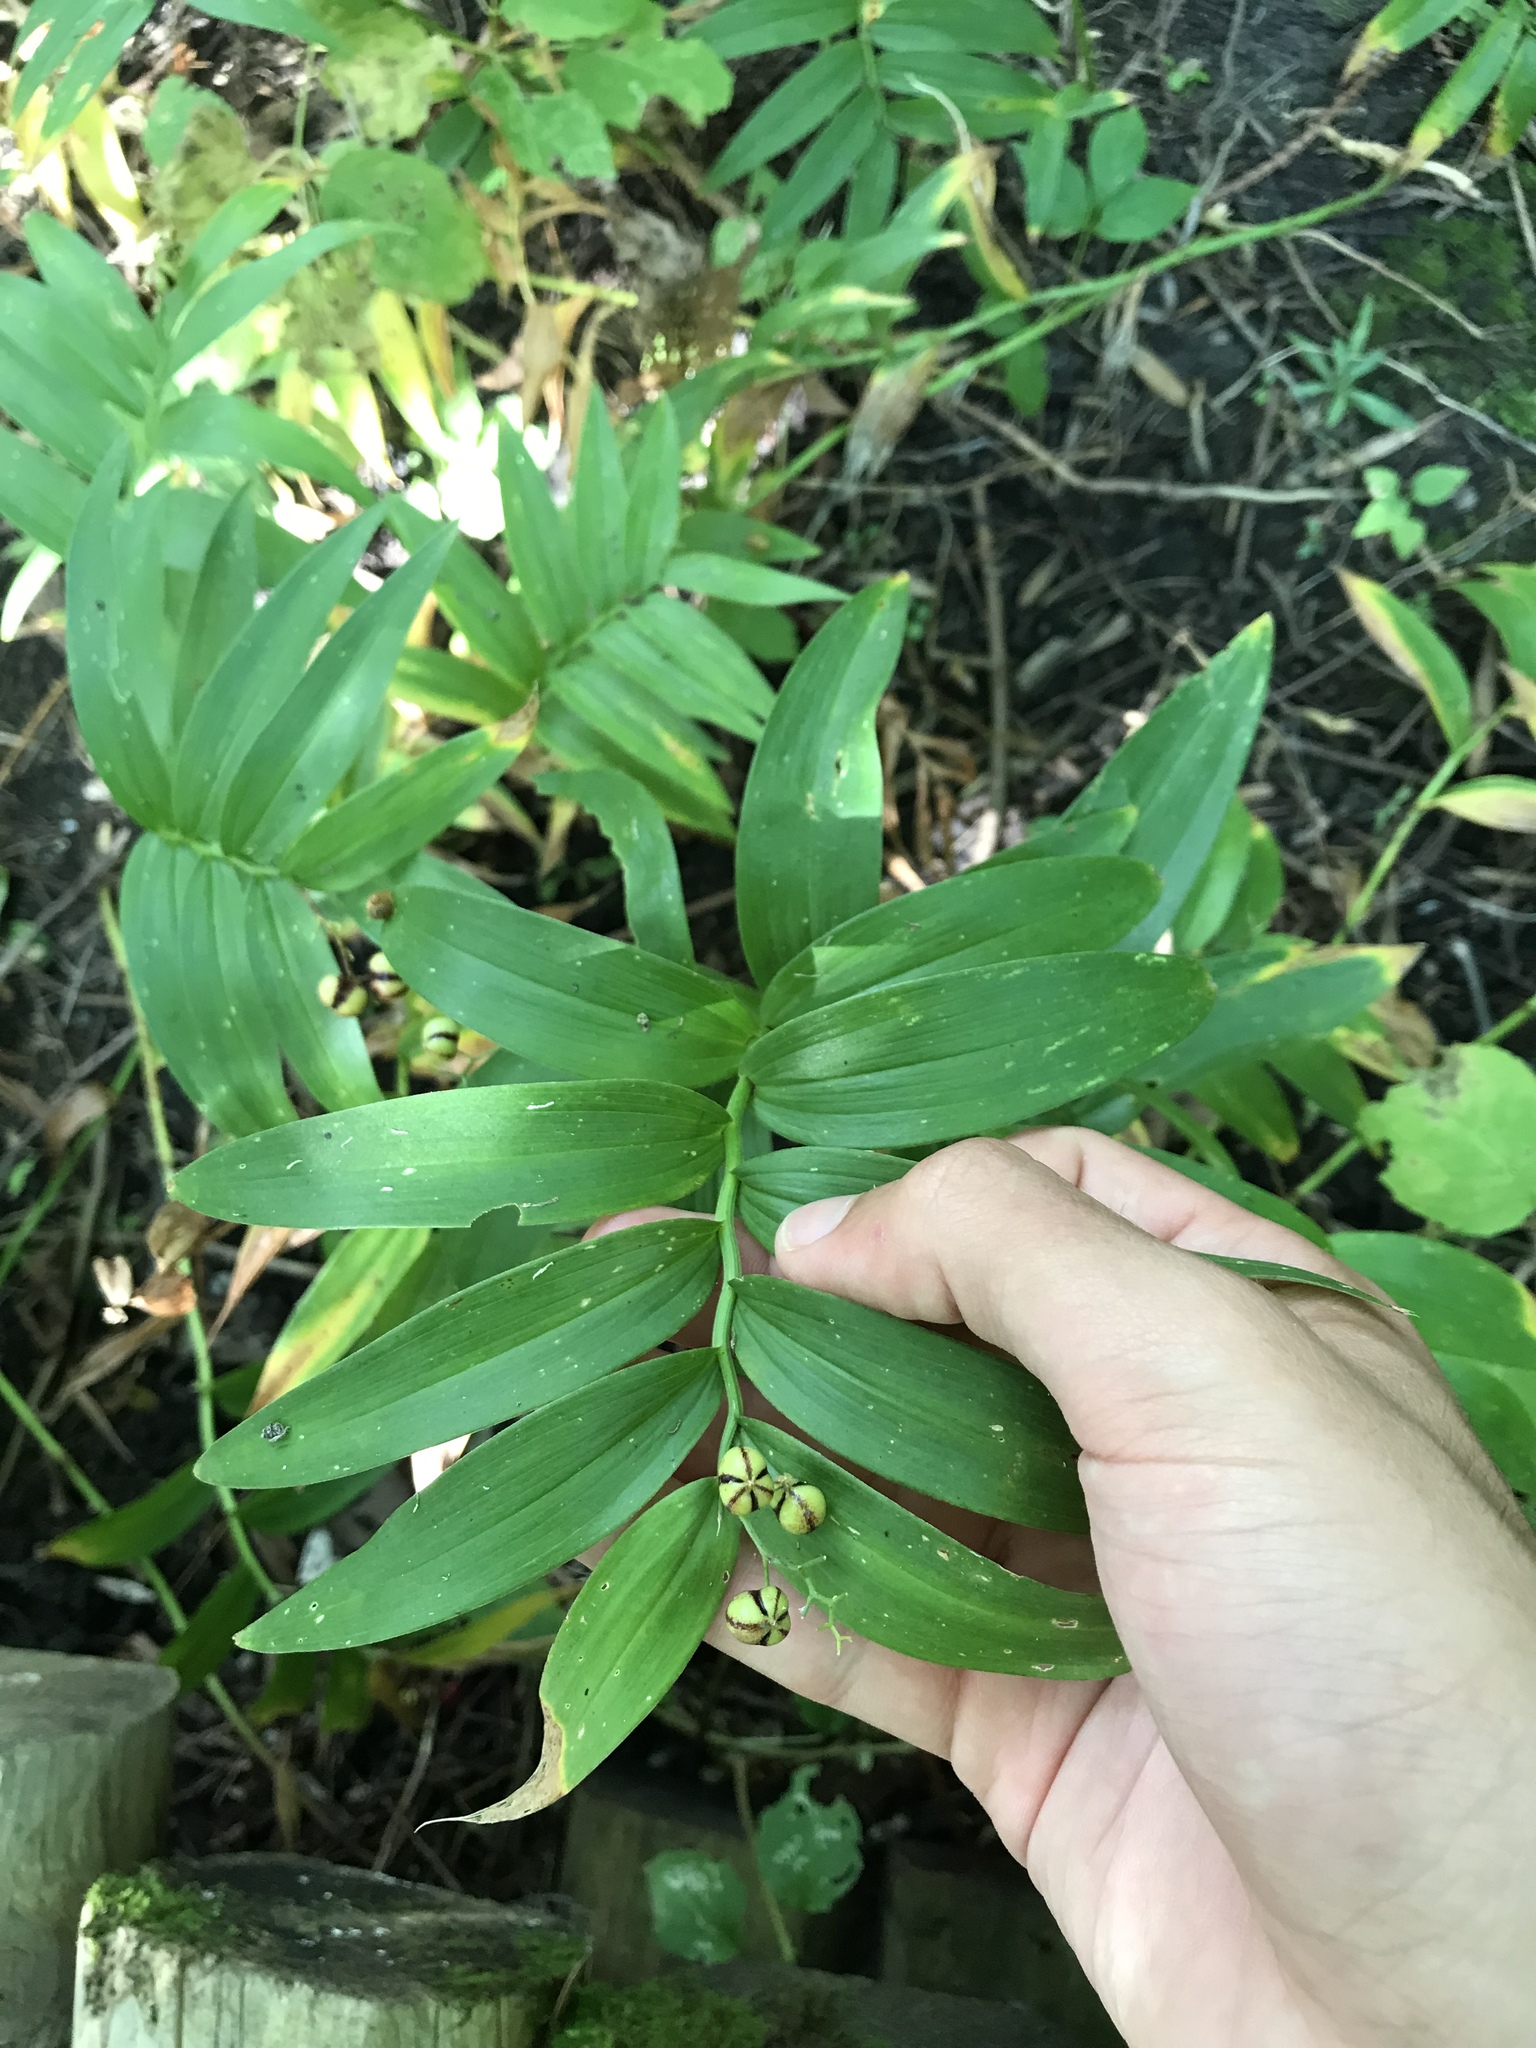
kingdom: Plantae
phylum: Tracheophyta
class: Liliopsida
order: Asparagales
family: Asparagaceae
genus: Maianthemum
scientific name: Maianthemum stellatum
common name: Little false solomon's seal
